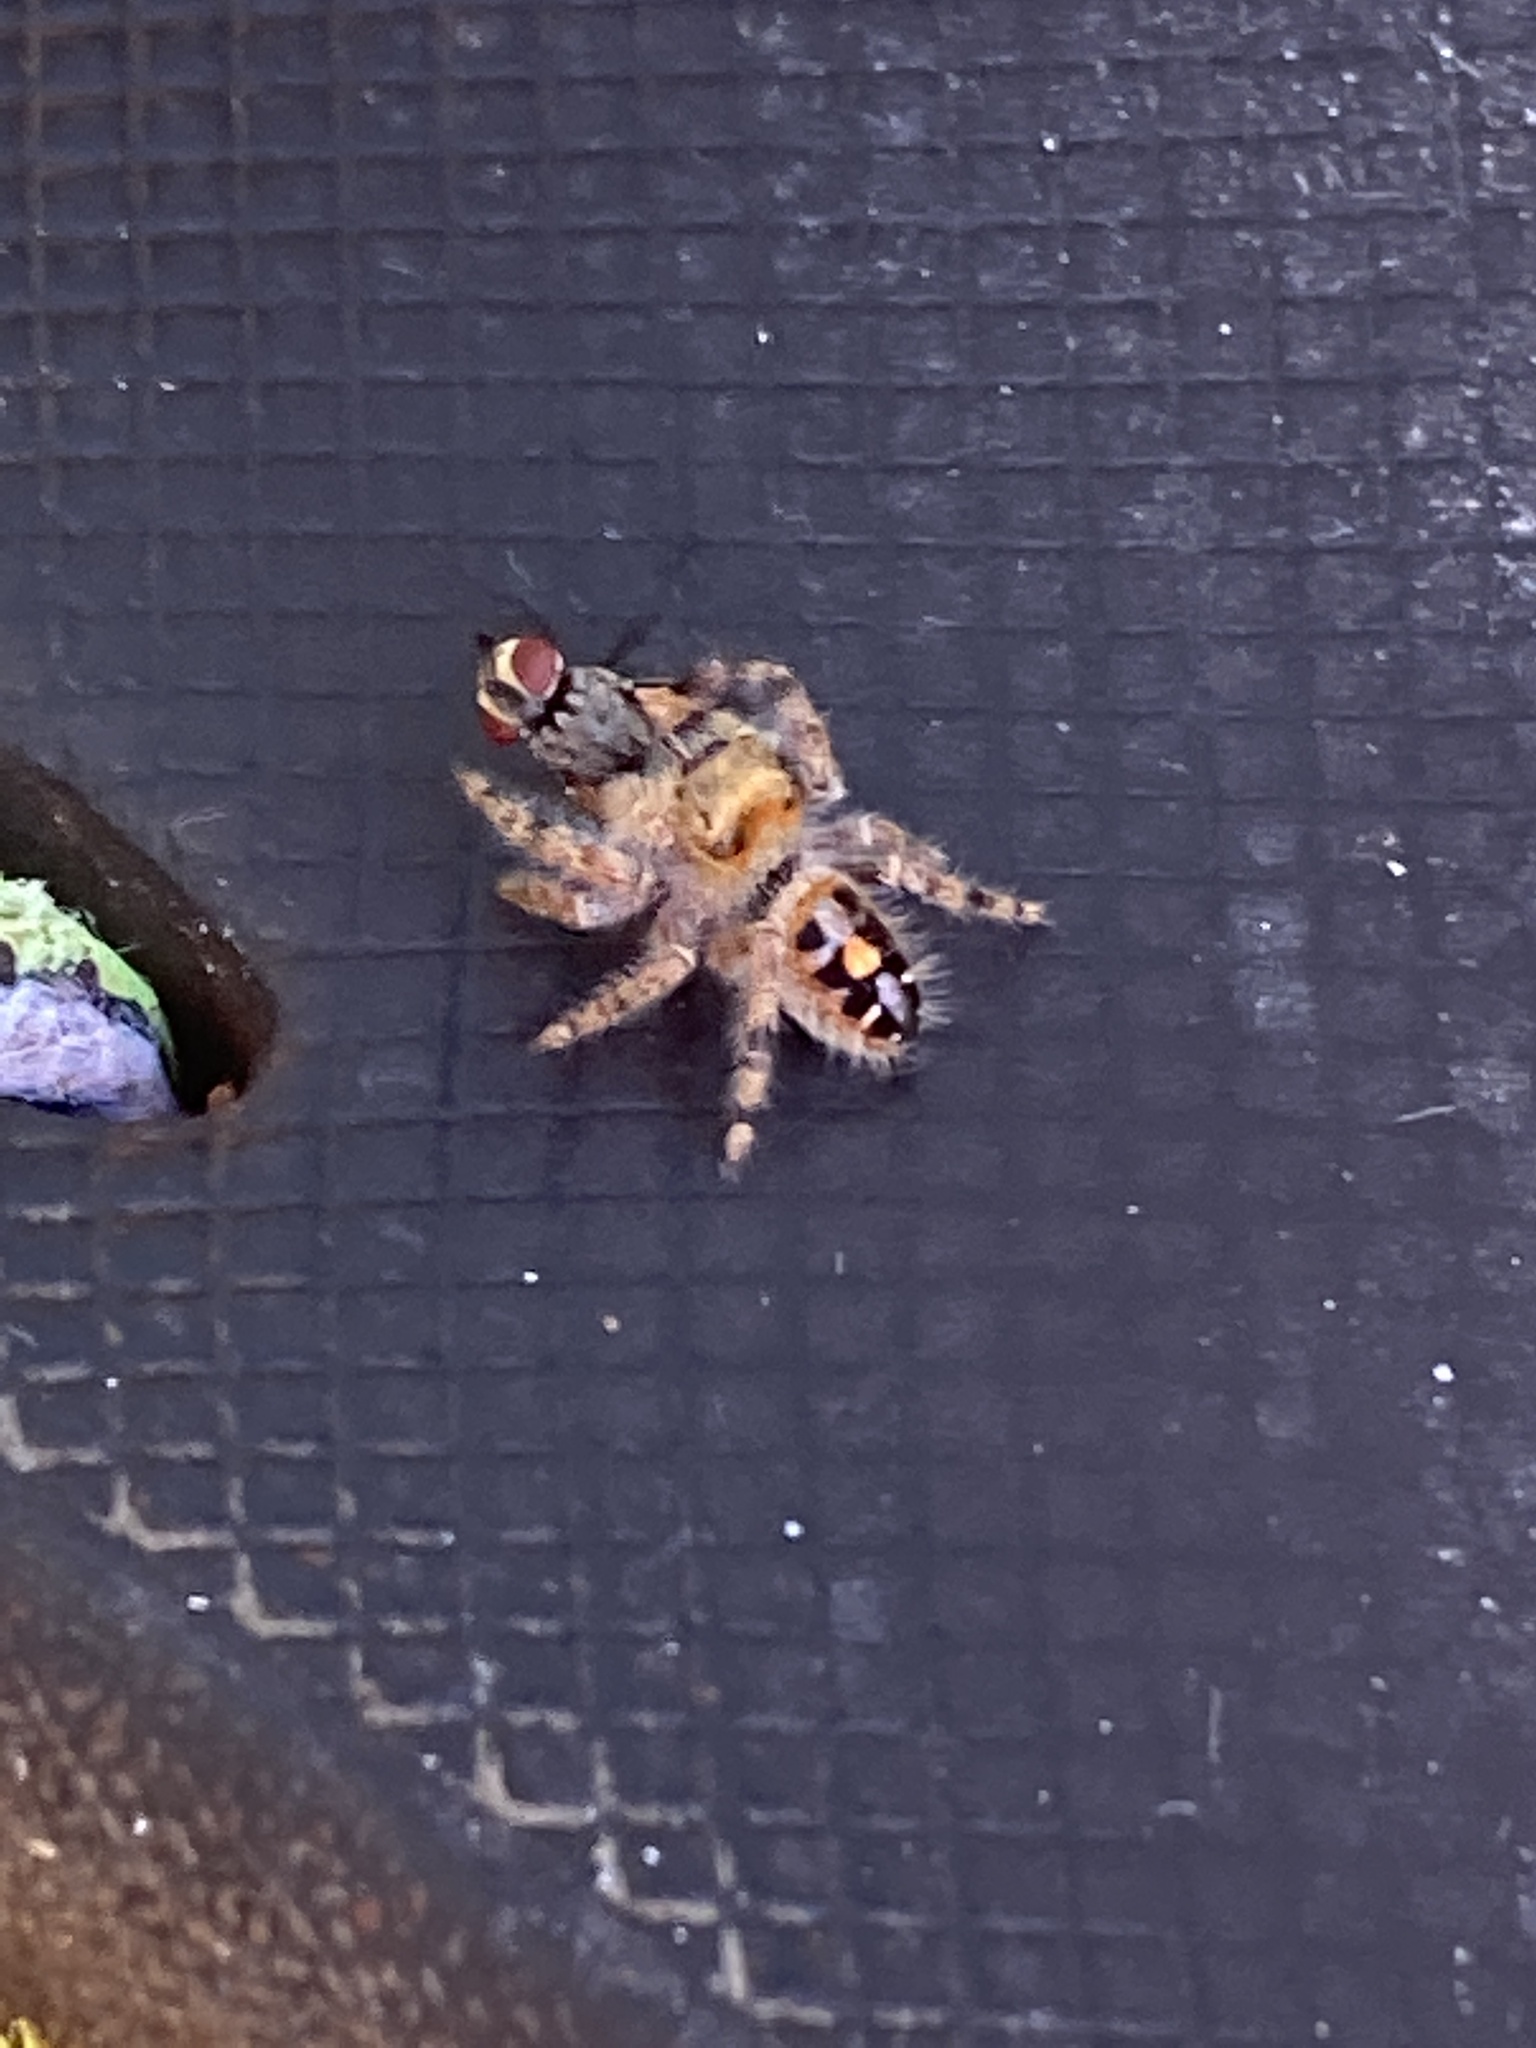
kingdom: Animalia
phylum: Arthropoda
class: Arachnida
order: Araneae
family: Salticidae
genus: Phidippus
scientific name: Phidippus audax
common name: Bold jumper
